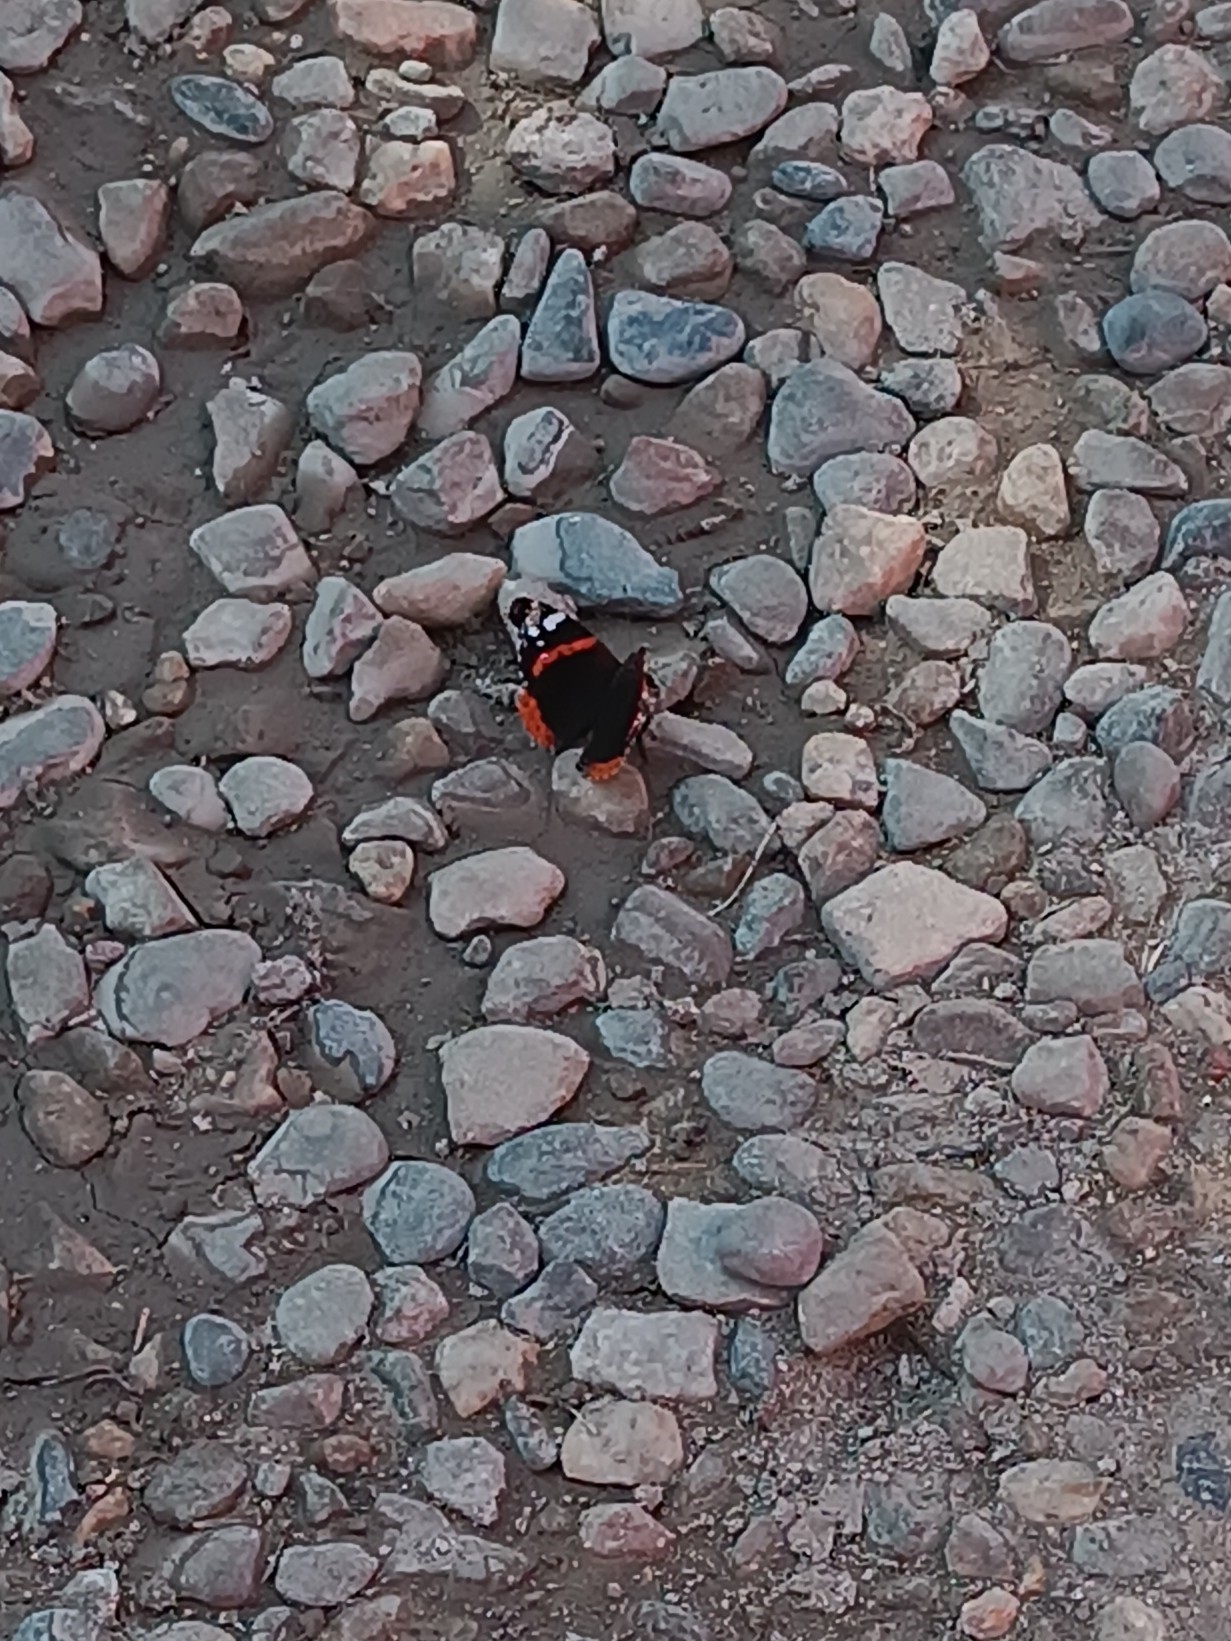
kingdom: Animalia
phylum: Arthropoda
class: Insecta
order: Lepidoptera
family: Nymphalidae
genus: Vanessa
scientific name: Vanessa atalanta
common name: Red admiral
